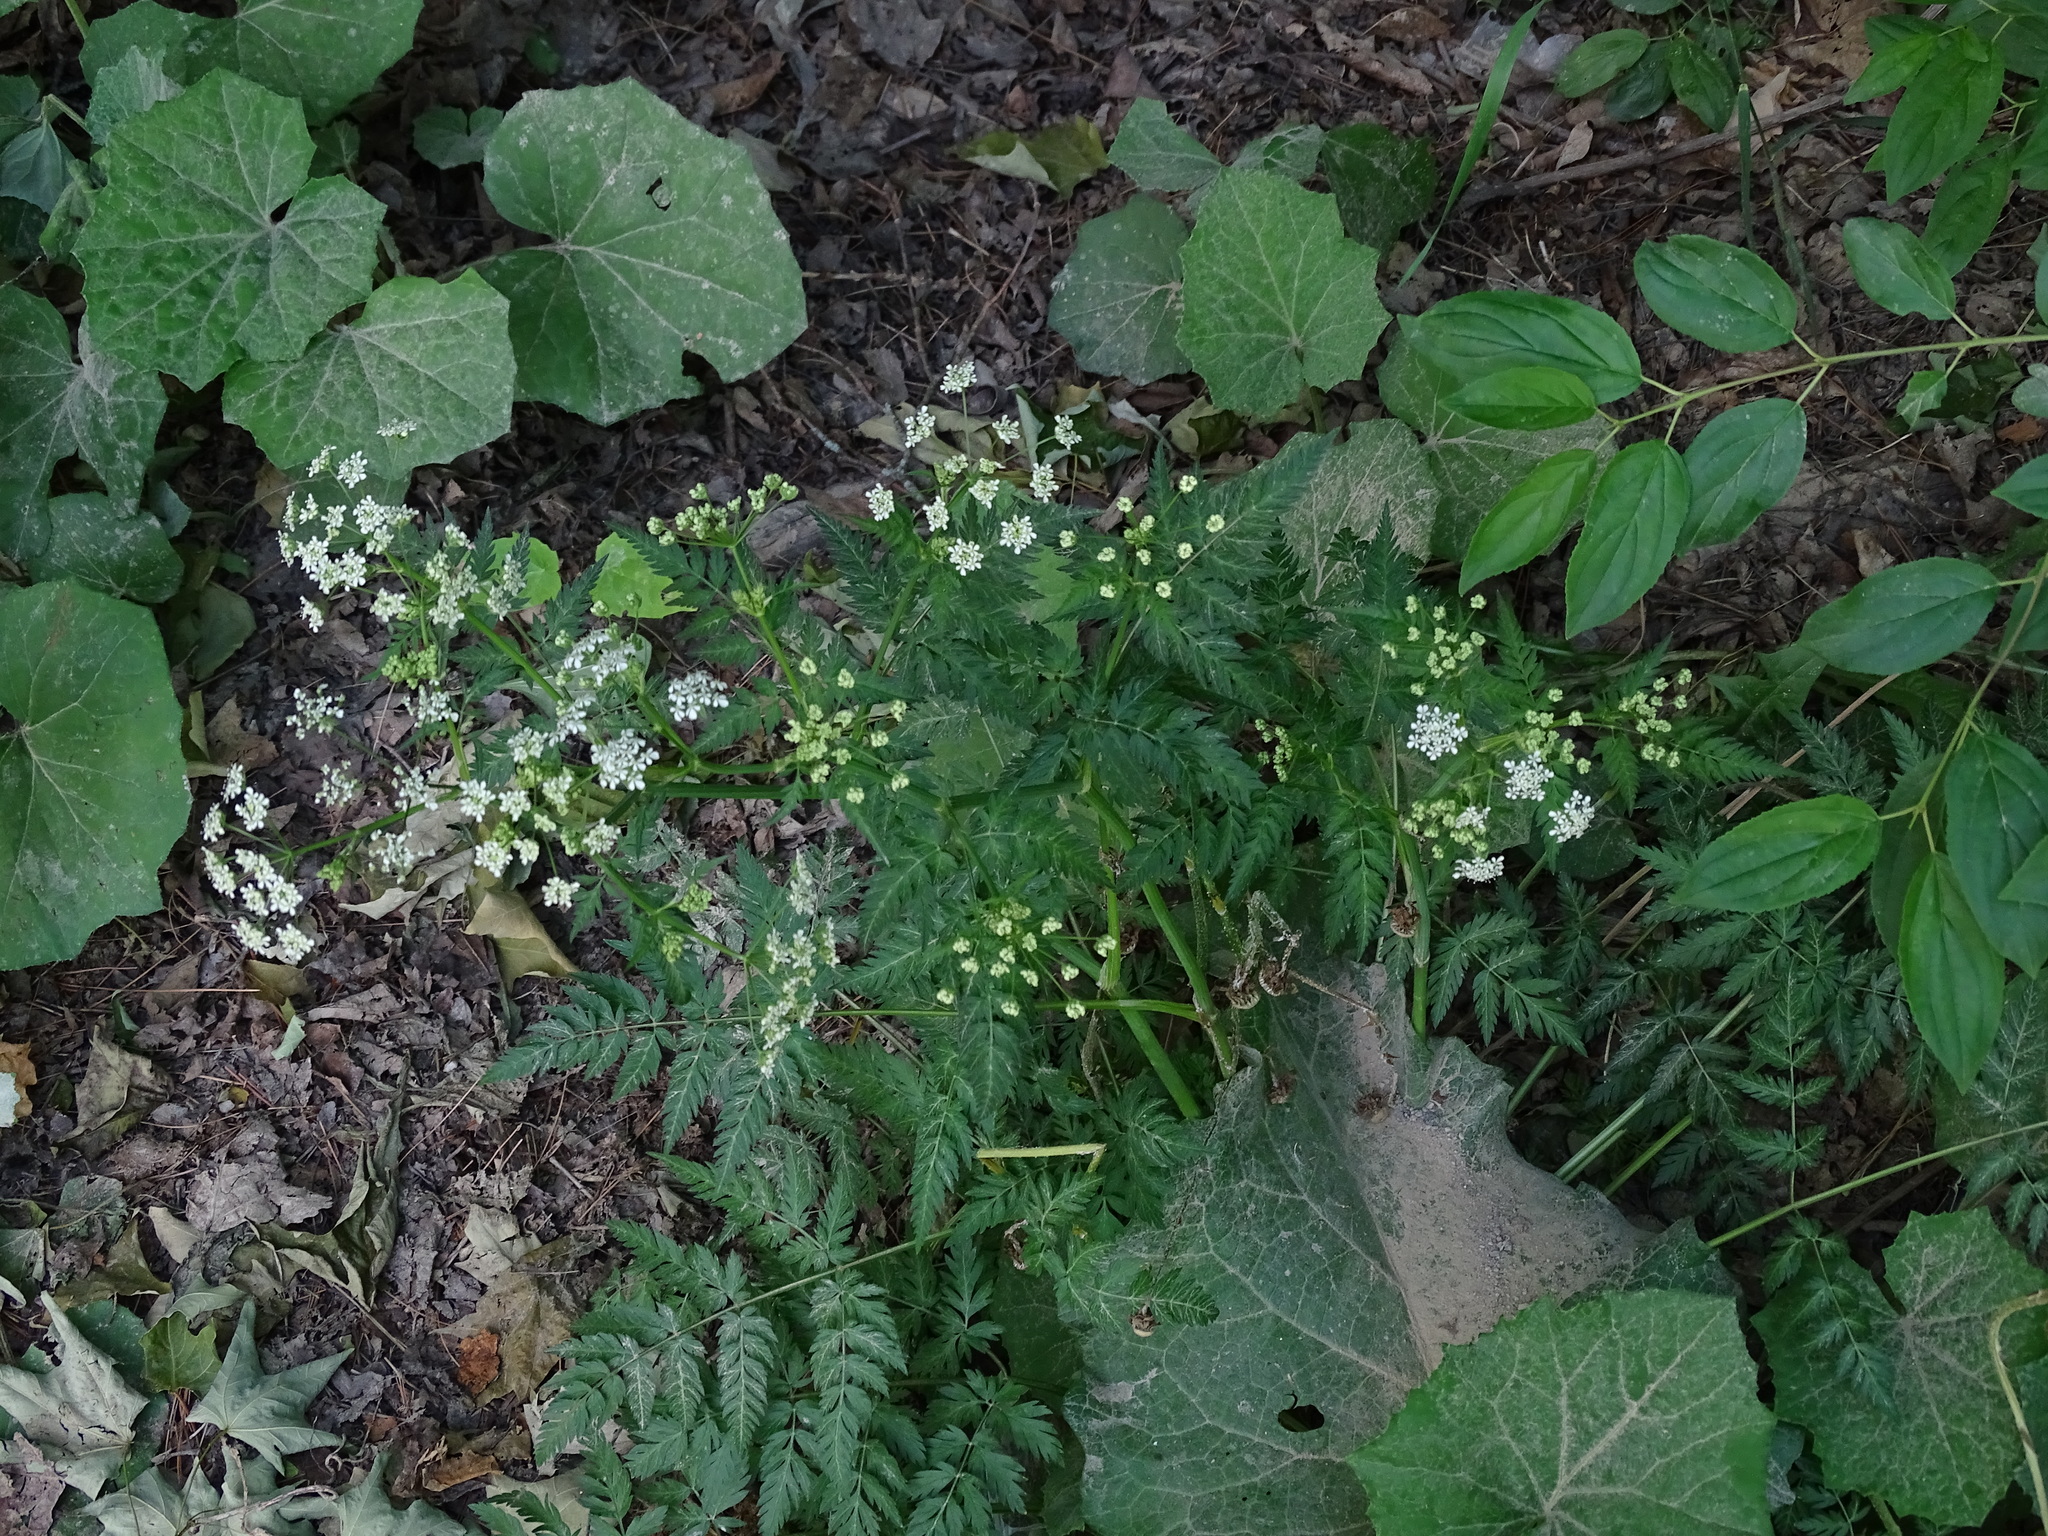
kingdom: Plantae
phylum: Tracheophyta
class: Magnoliopsida
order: Apiales
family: Apiaceae
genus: Anthriscus
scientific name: Anthriscus sylvestris
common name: Cow parsley
